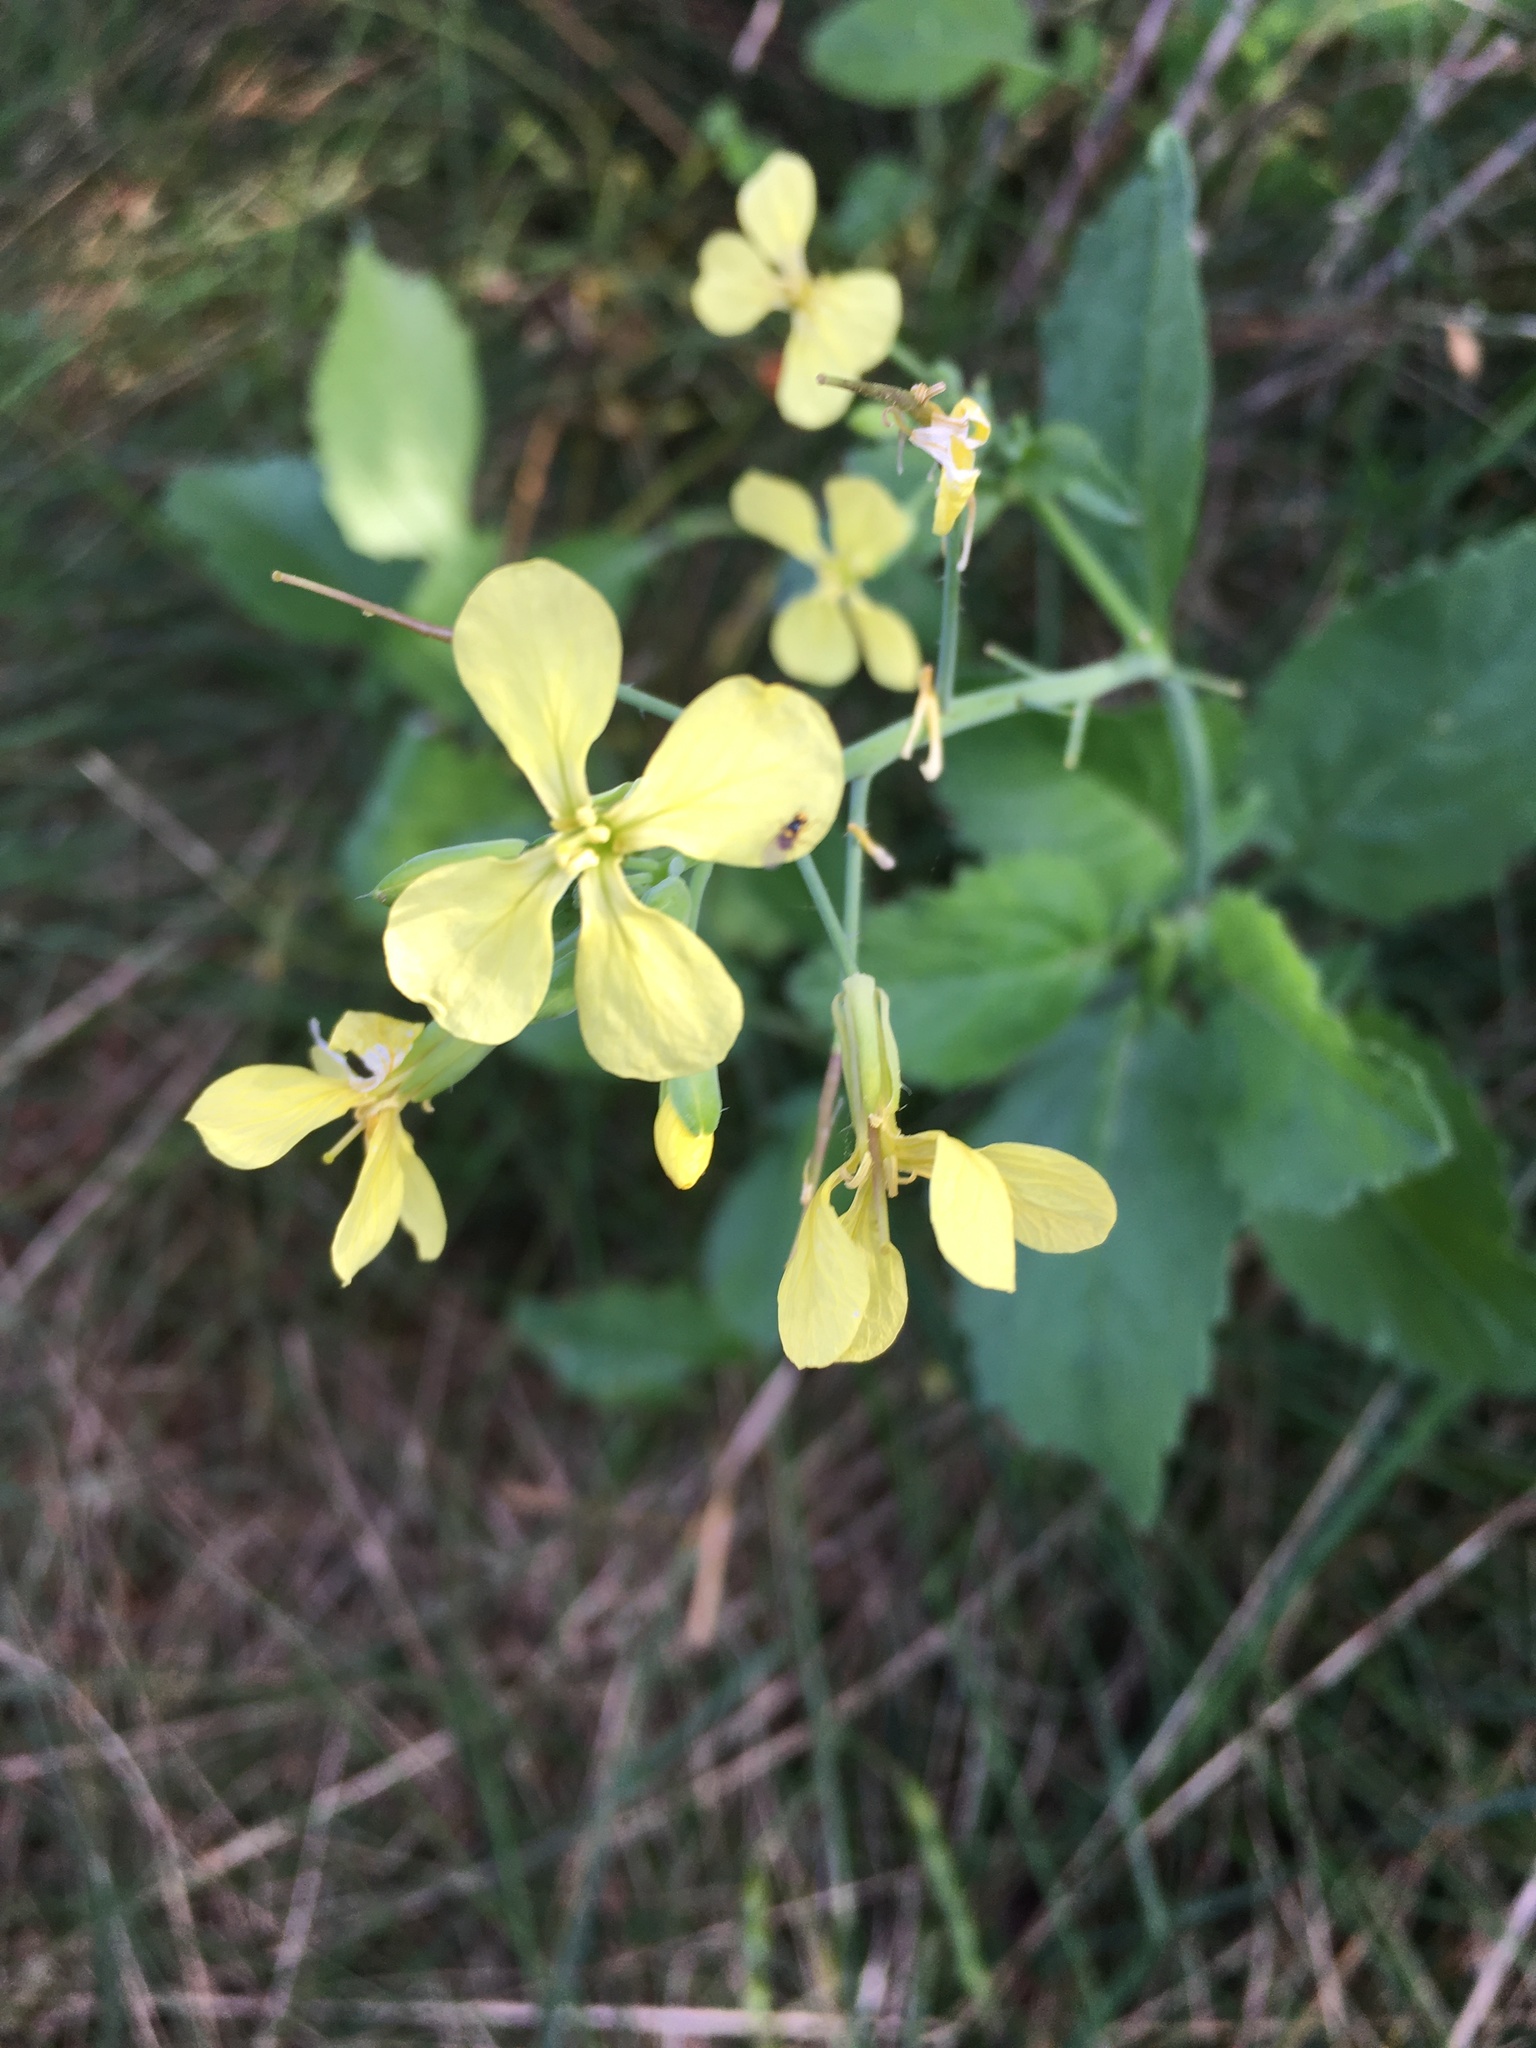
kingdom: Plantae
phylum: Tracheophyta
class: Magnoliopsida
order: Brassicales
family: Brassicaceae
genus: Raphanus
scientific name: Raphanus raphanistrum
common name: Wild radish
